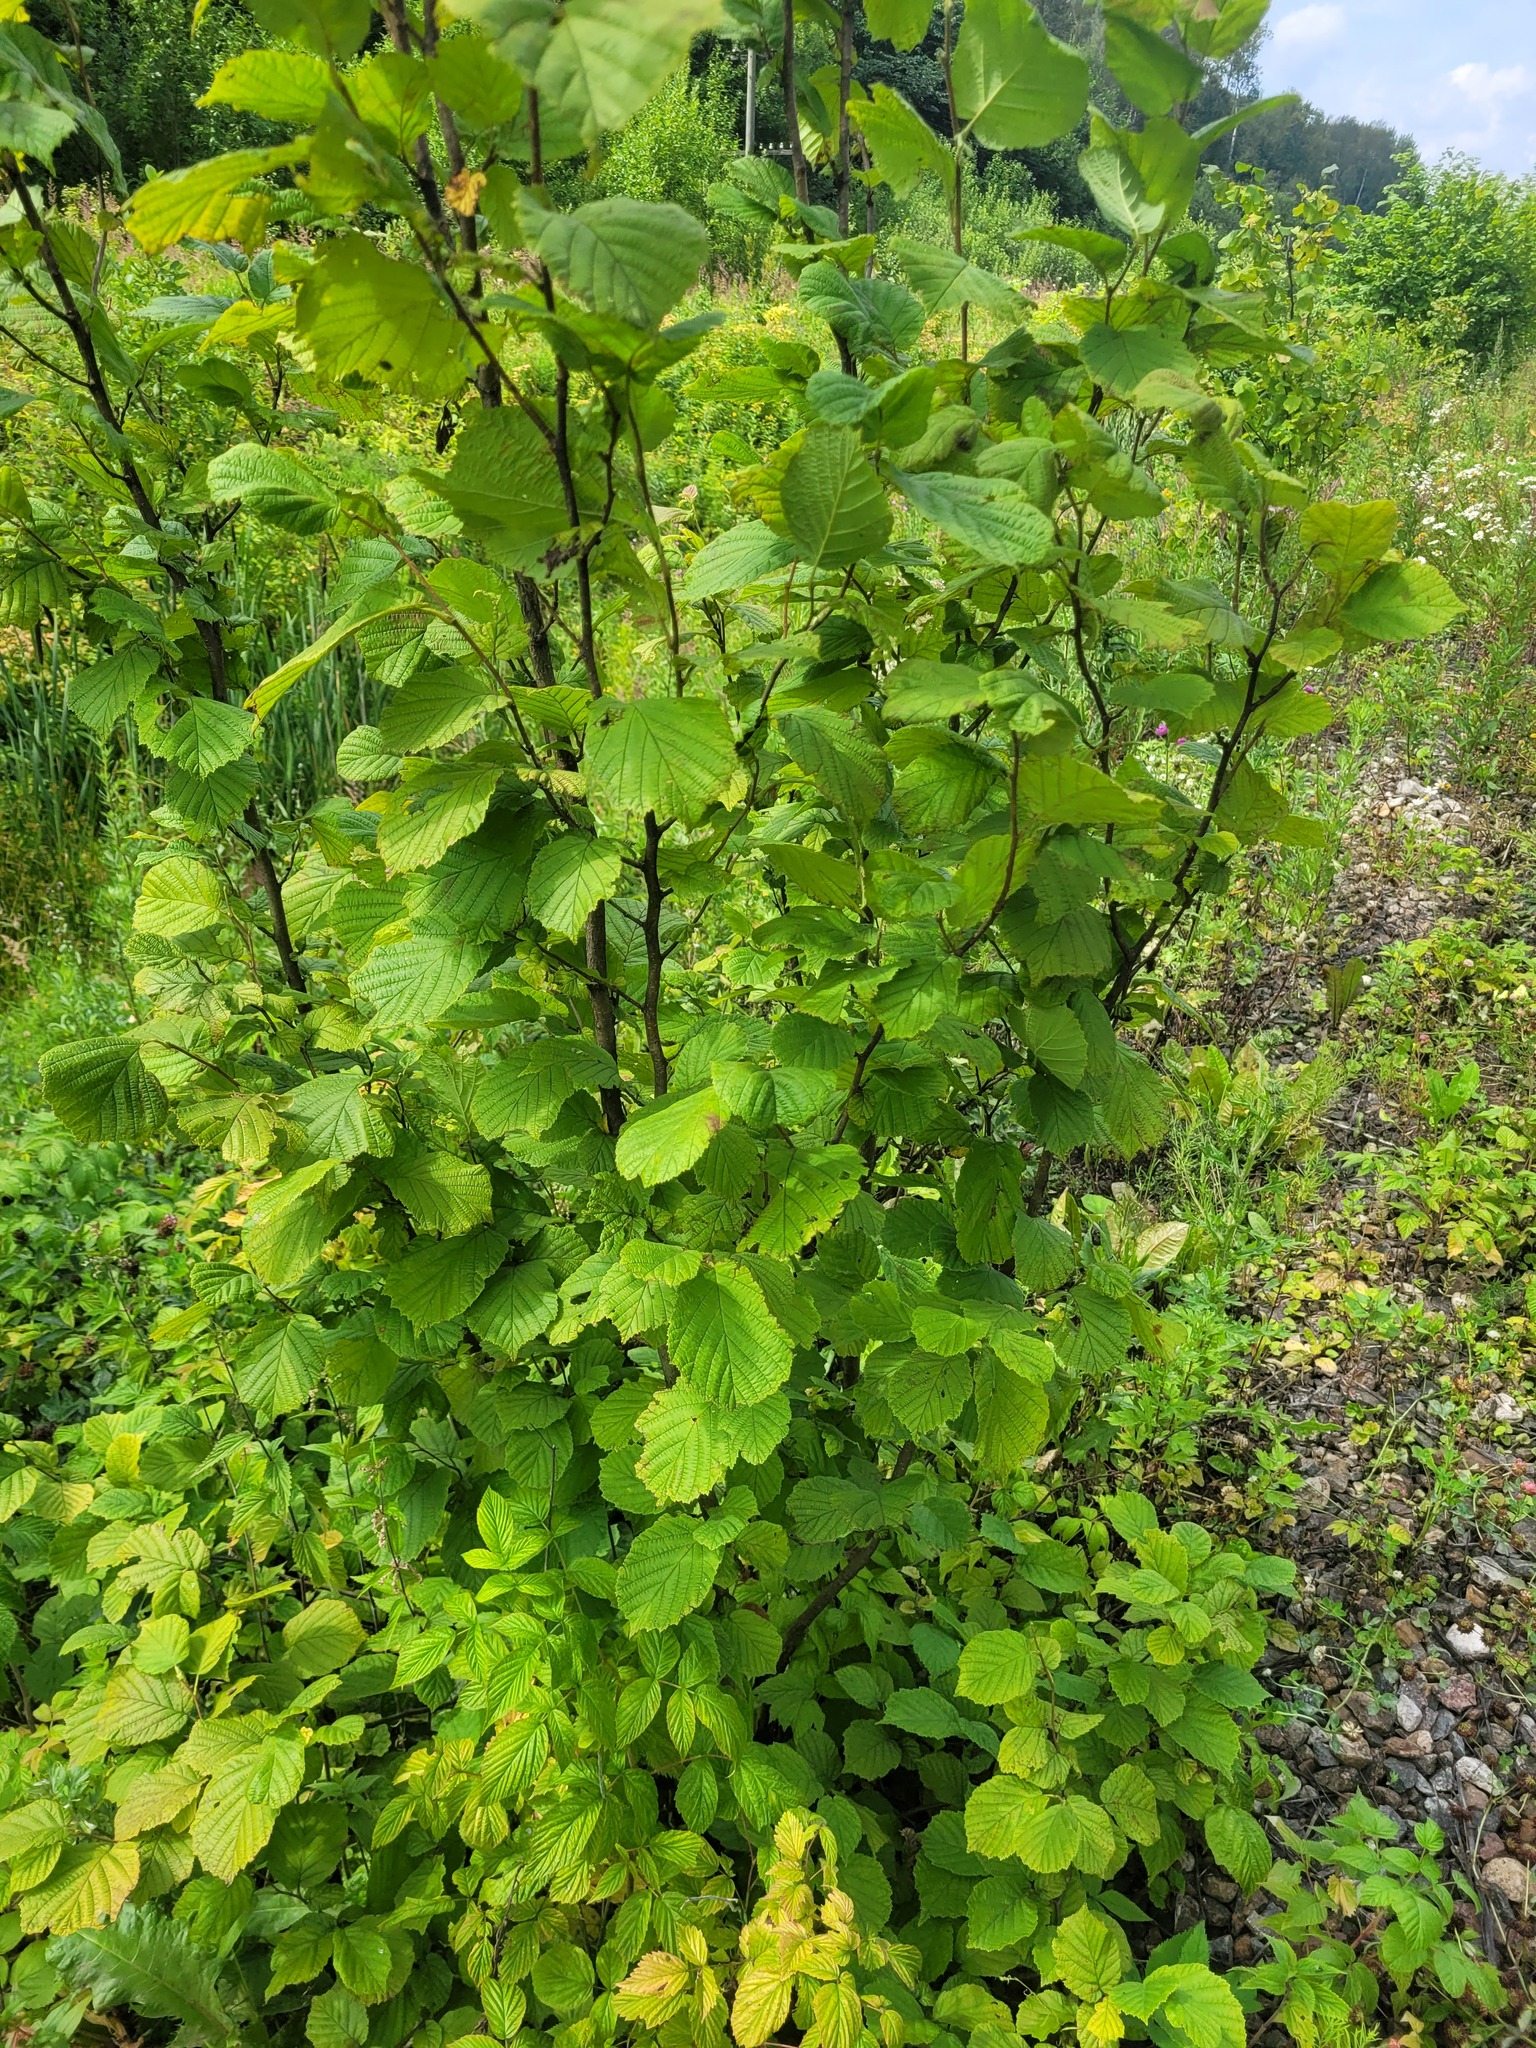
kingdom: Plantae
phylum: Tracheophyta
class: Magnoliopsida
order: Fagales
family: Betulaceae
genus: Corylus
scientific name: Corylus avellana
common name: European hazel
